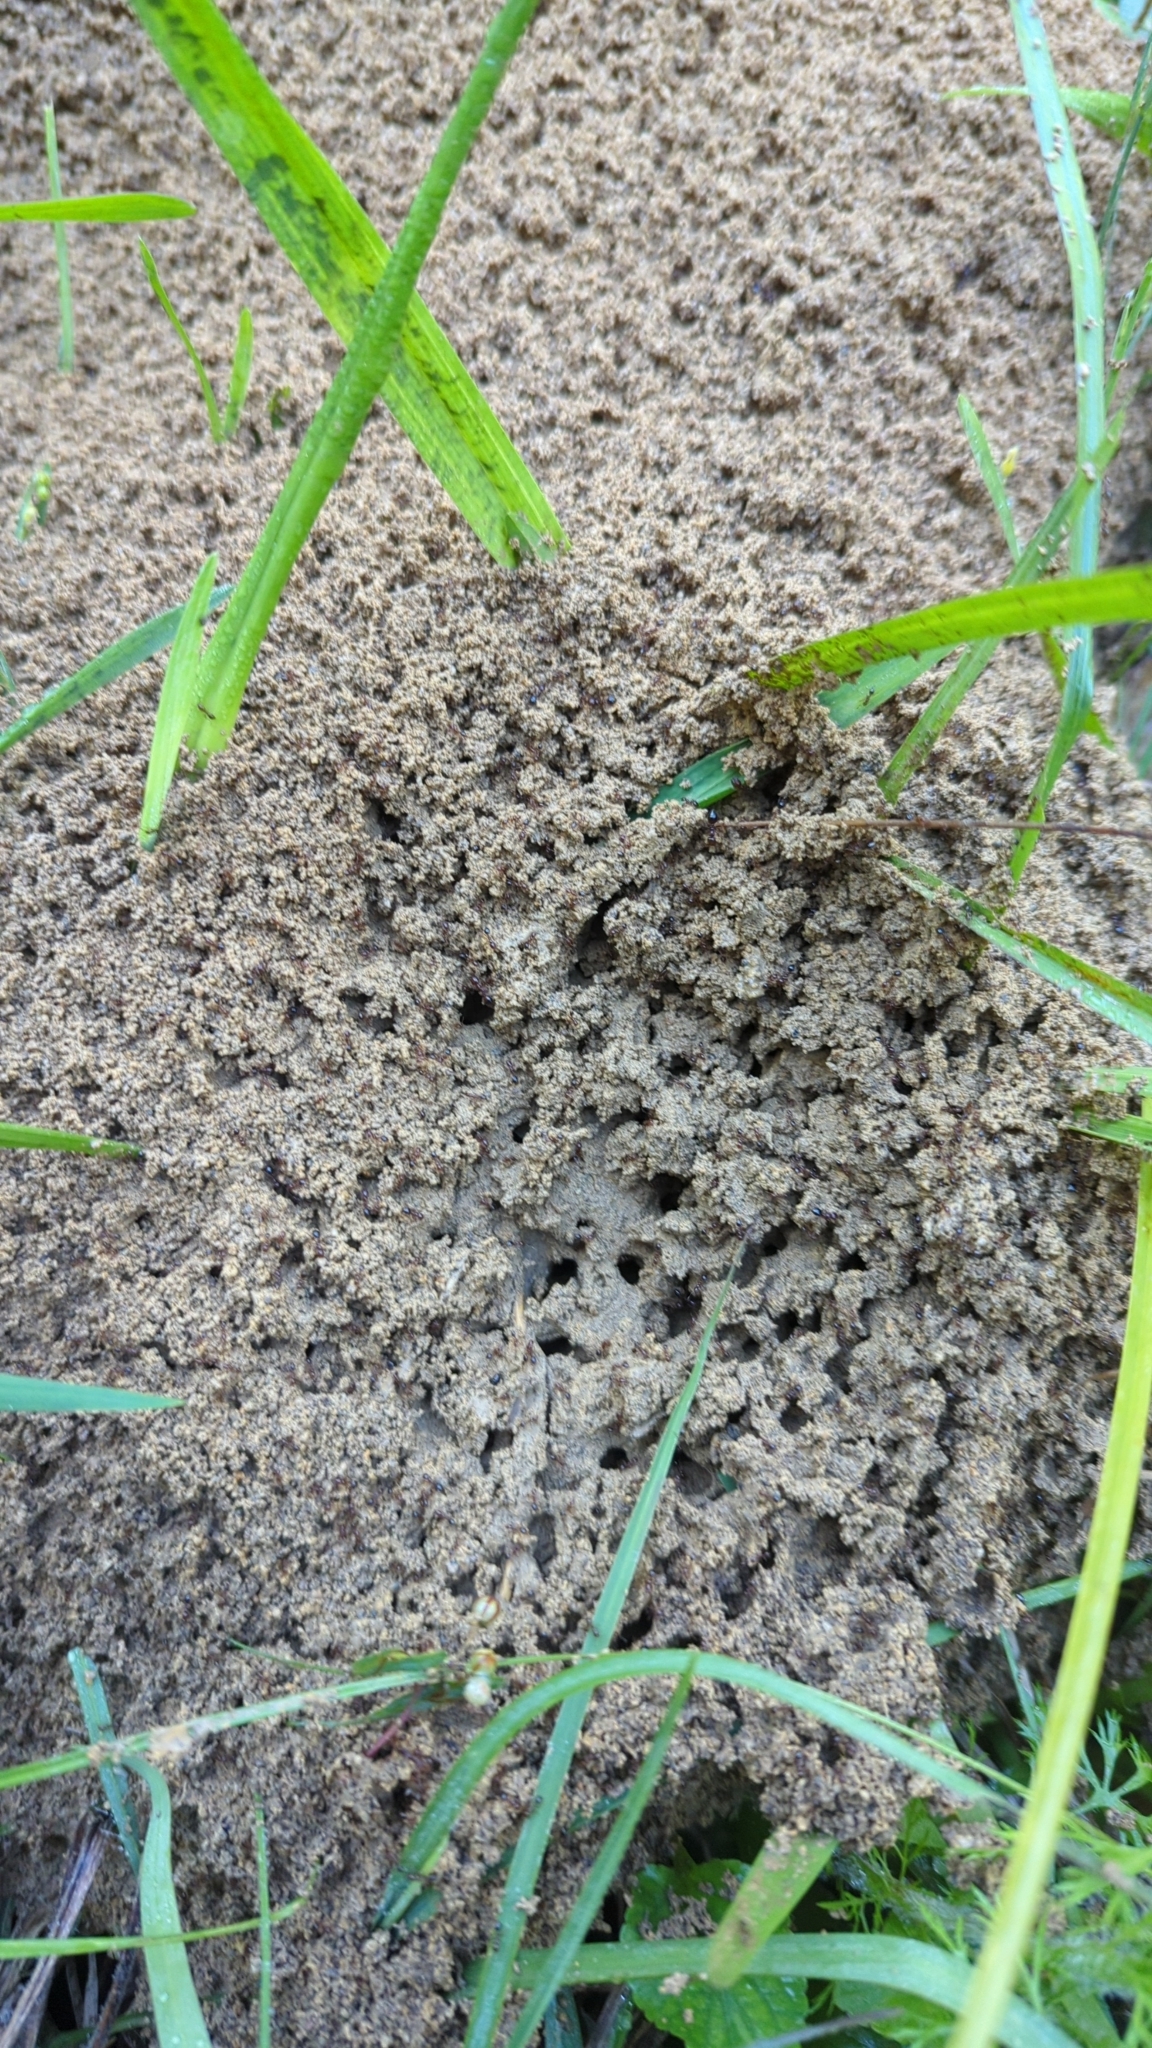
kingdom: Animalia
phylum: Arthropoda
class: Insecta
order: Hymenoptera
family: Formicidae
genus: Solenopsis
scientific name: Solenopsis invicta
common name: Red imported fire ant
